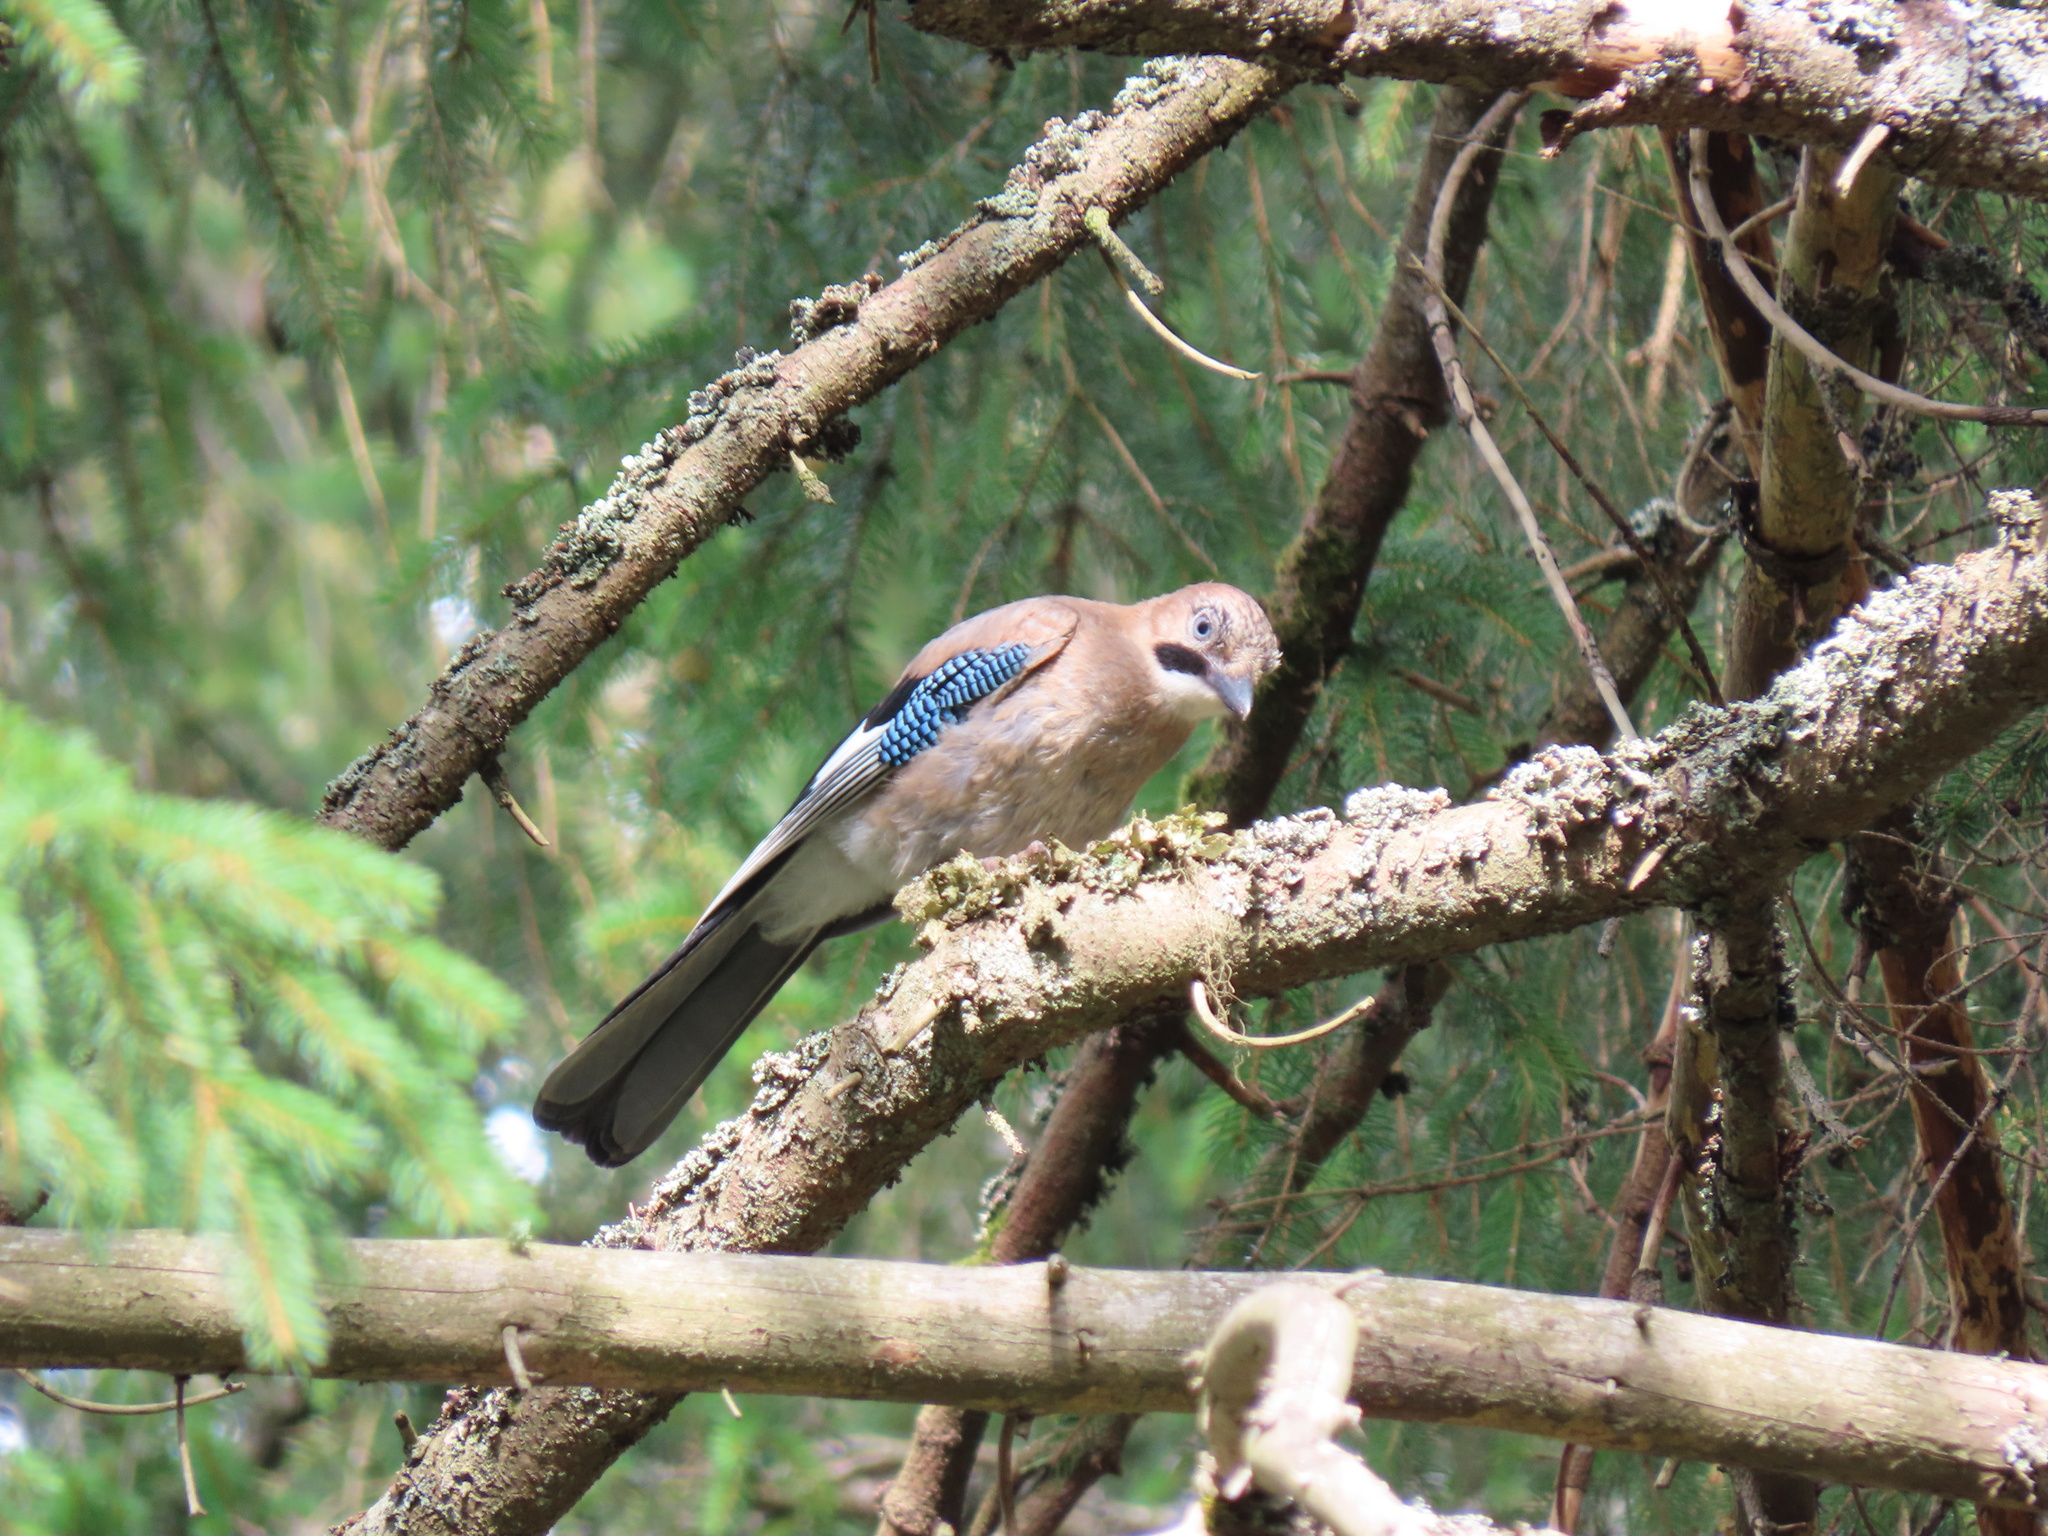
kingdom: Animalia
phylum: Chordata
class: Aves
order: Passeriformes
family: Corvidae
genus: Garrulus
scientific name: Garrulus glandarius
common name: Eurasian jay
